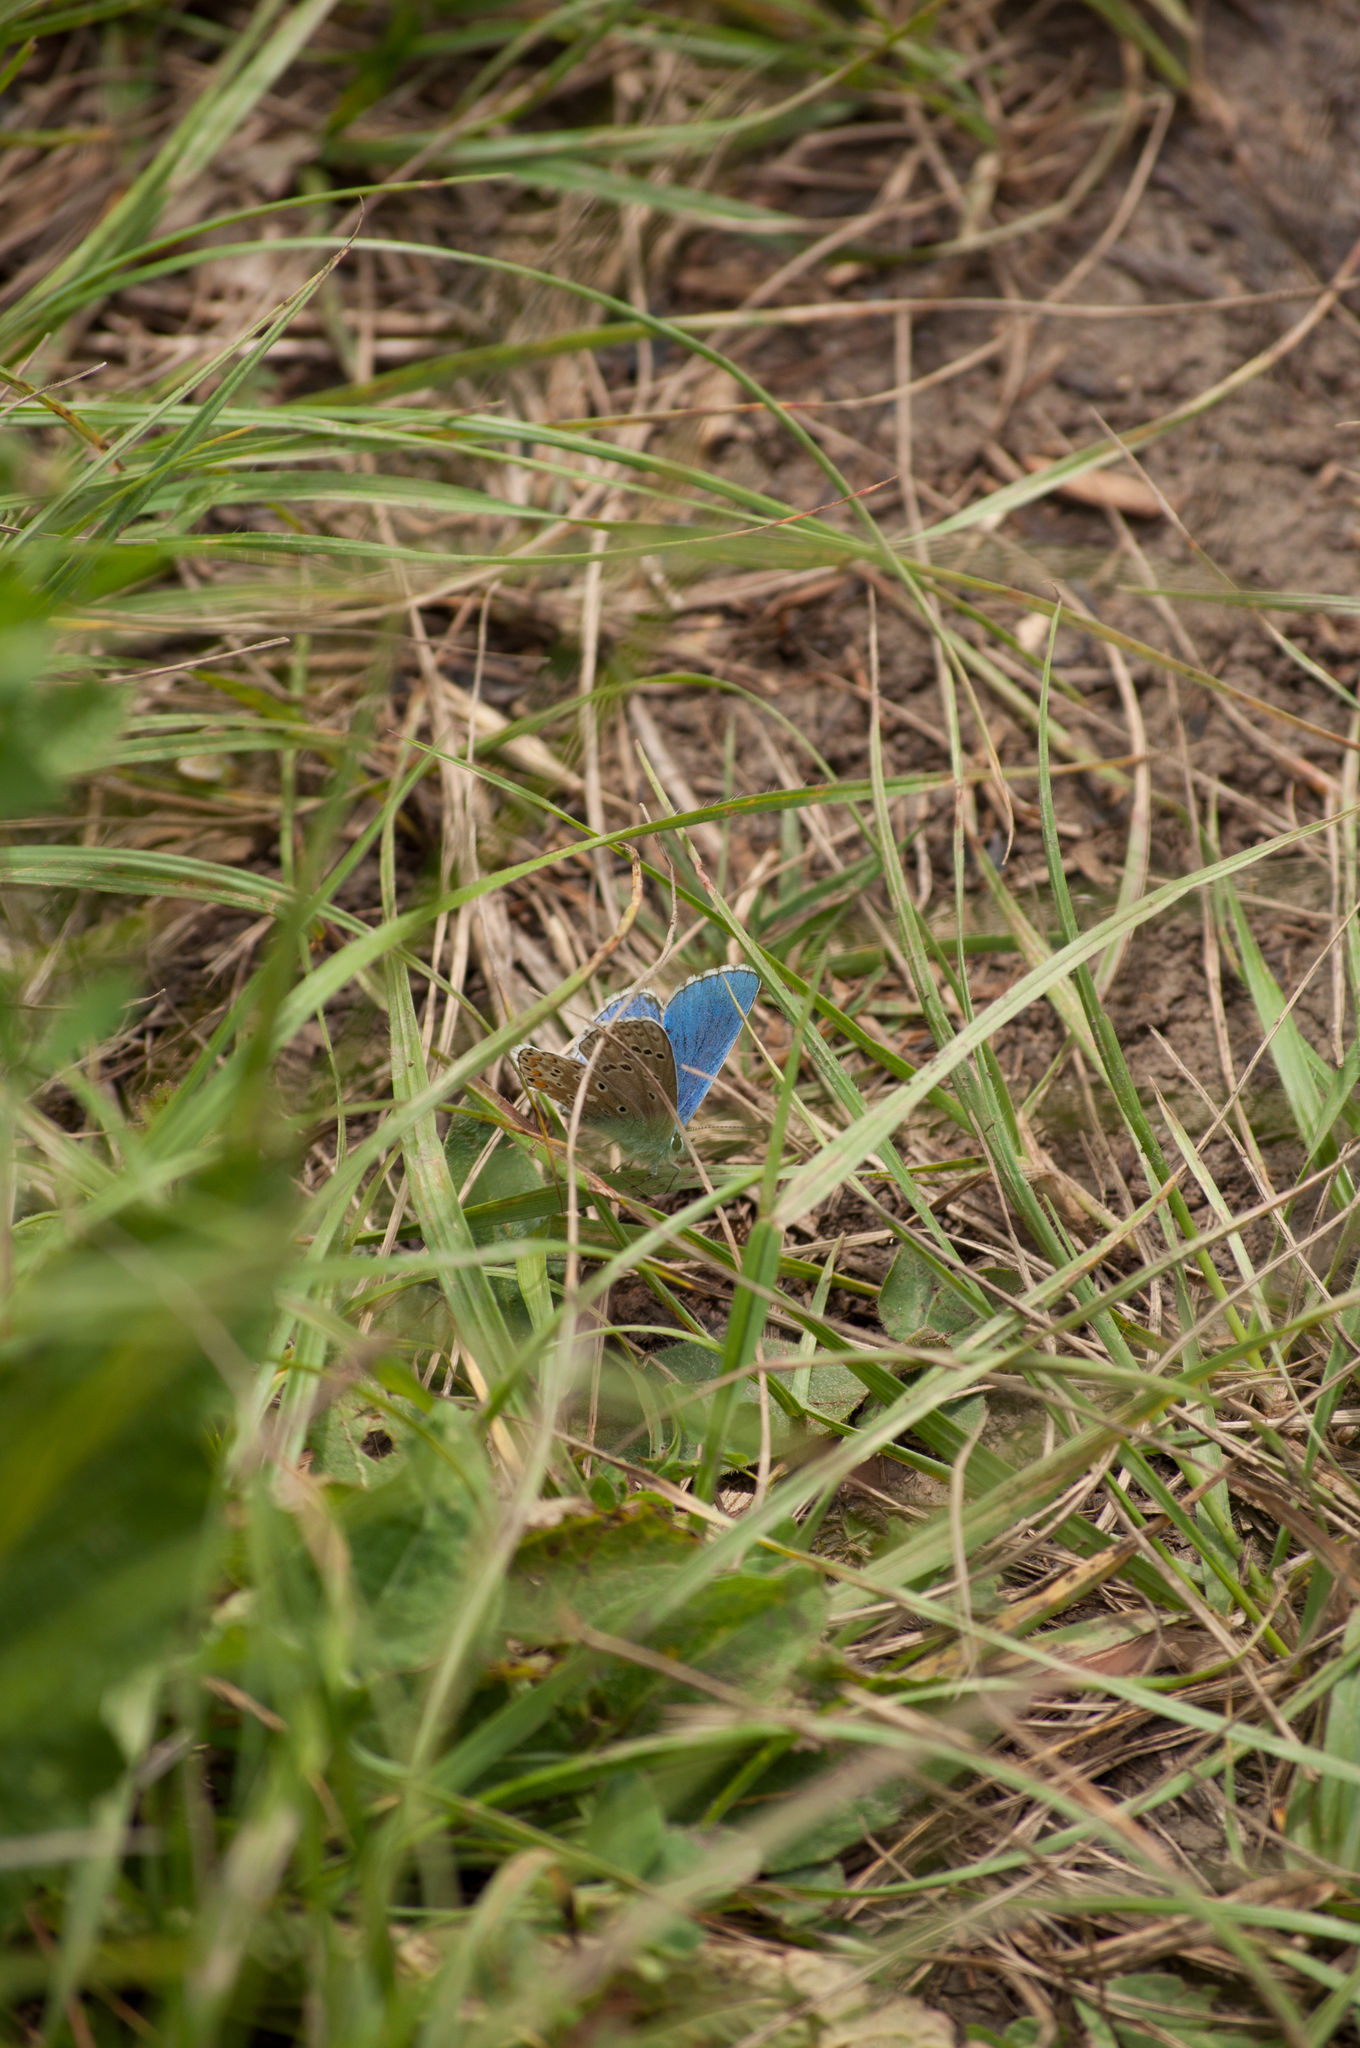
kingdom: Animalia
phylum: Arthropoda
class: Insecta
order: Lepidoptera
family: Lycaenidae
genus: Lysandra
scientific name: Lysandra bellargus
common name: Adonis blue
